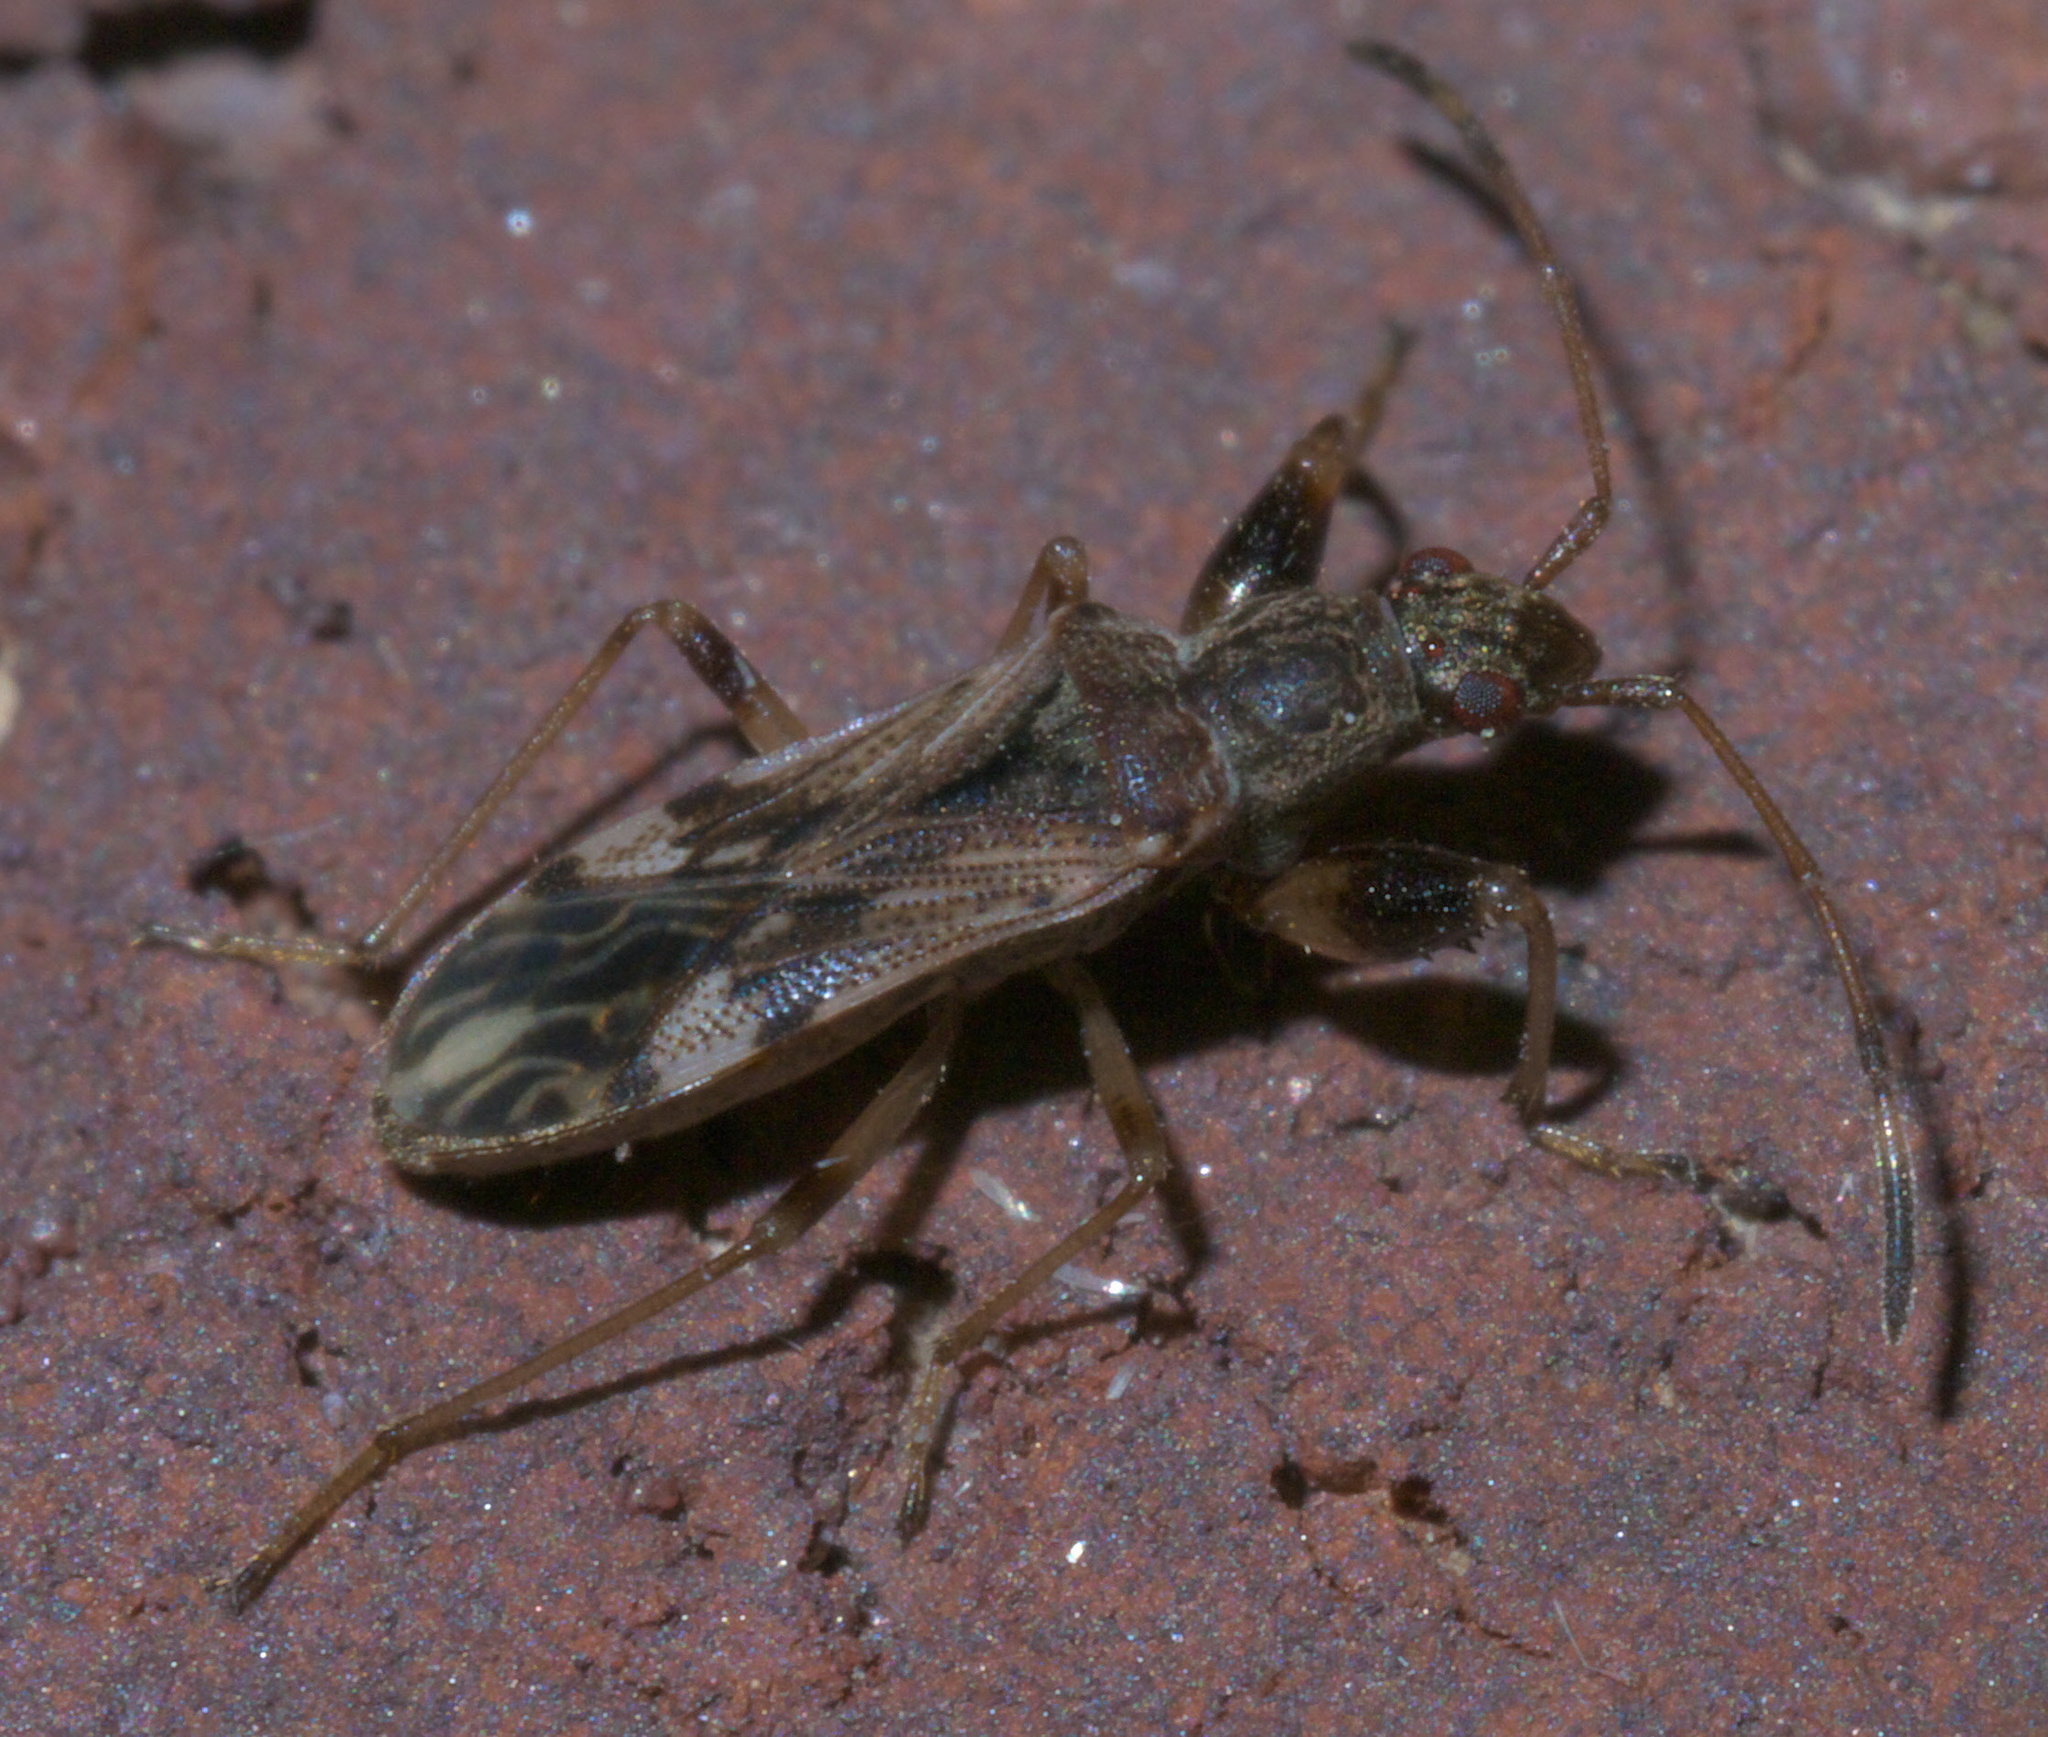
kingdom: Animalia
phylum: Arthropoda
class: Insecta
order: Hemiptera
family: Rhyparochromidae
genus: Neopamera
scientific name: Neopamera albocincta
